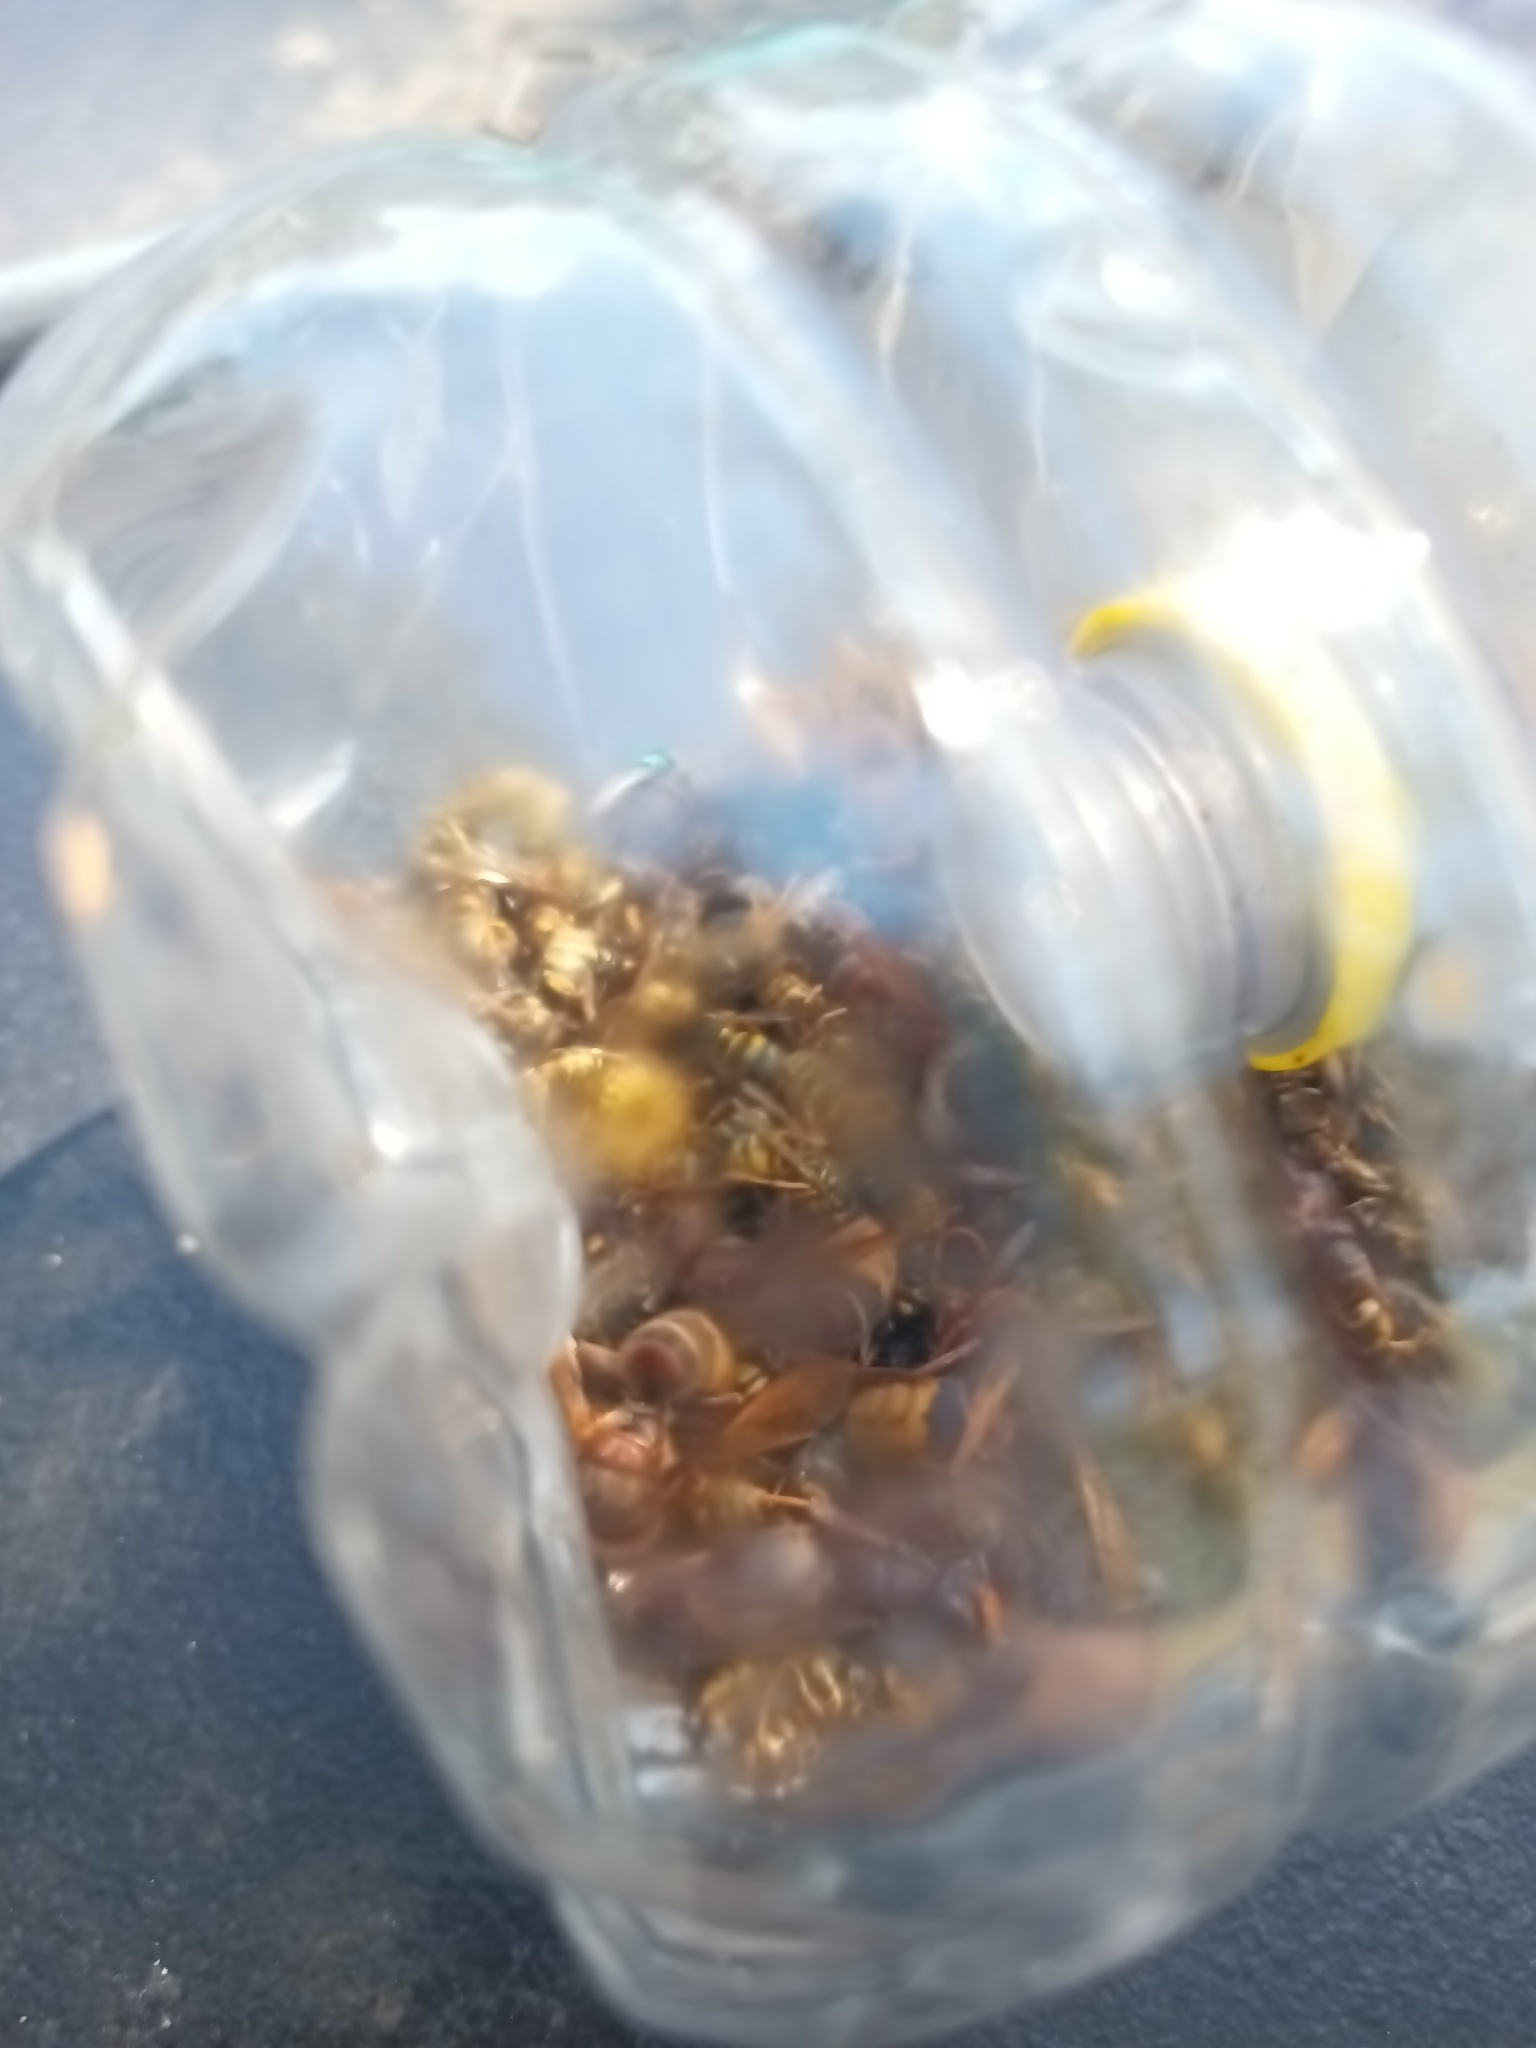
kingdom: Animalia
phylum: Arthropoda
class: Insecta
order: Hymenoptera
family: Vespidae
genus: Vespa
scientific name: Vespa velutina
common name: Asian hornet
